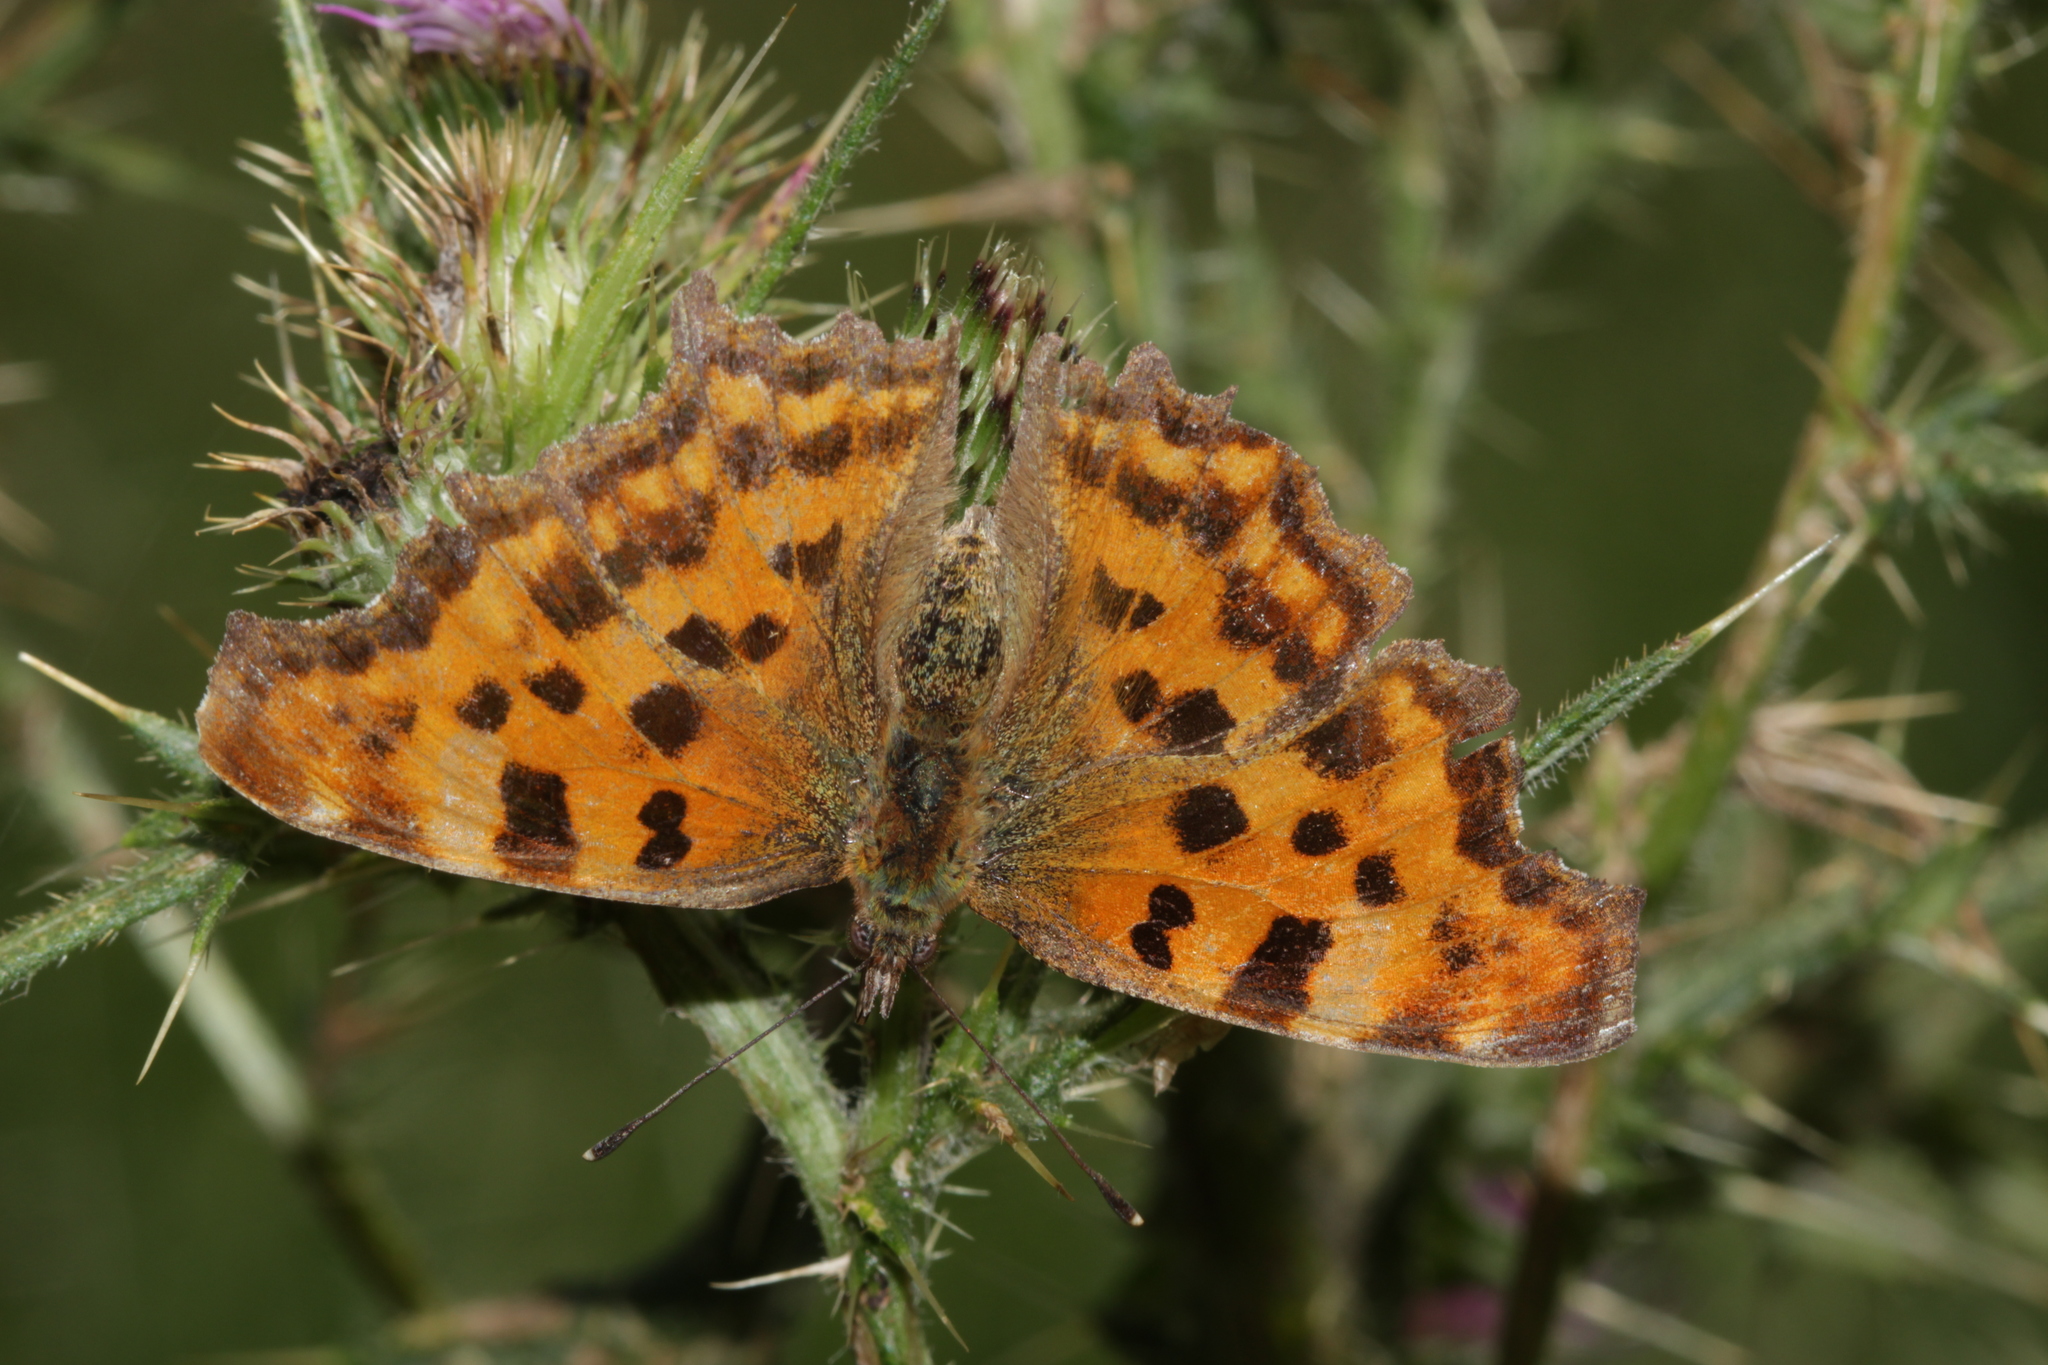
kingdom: Animalia
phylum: Arthropoda
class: Insecta
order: Lepidoptera
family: Nymphalidae
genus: Polygonia
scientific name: Polygonia c-album
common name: Comma
